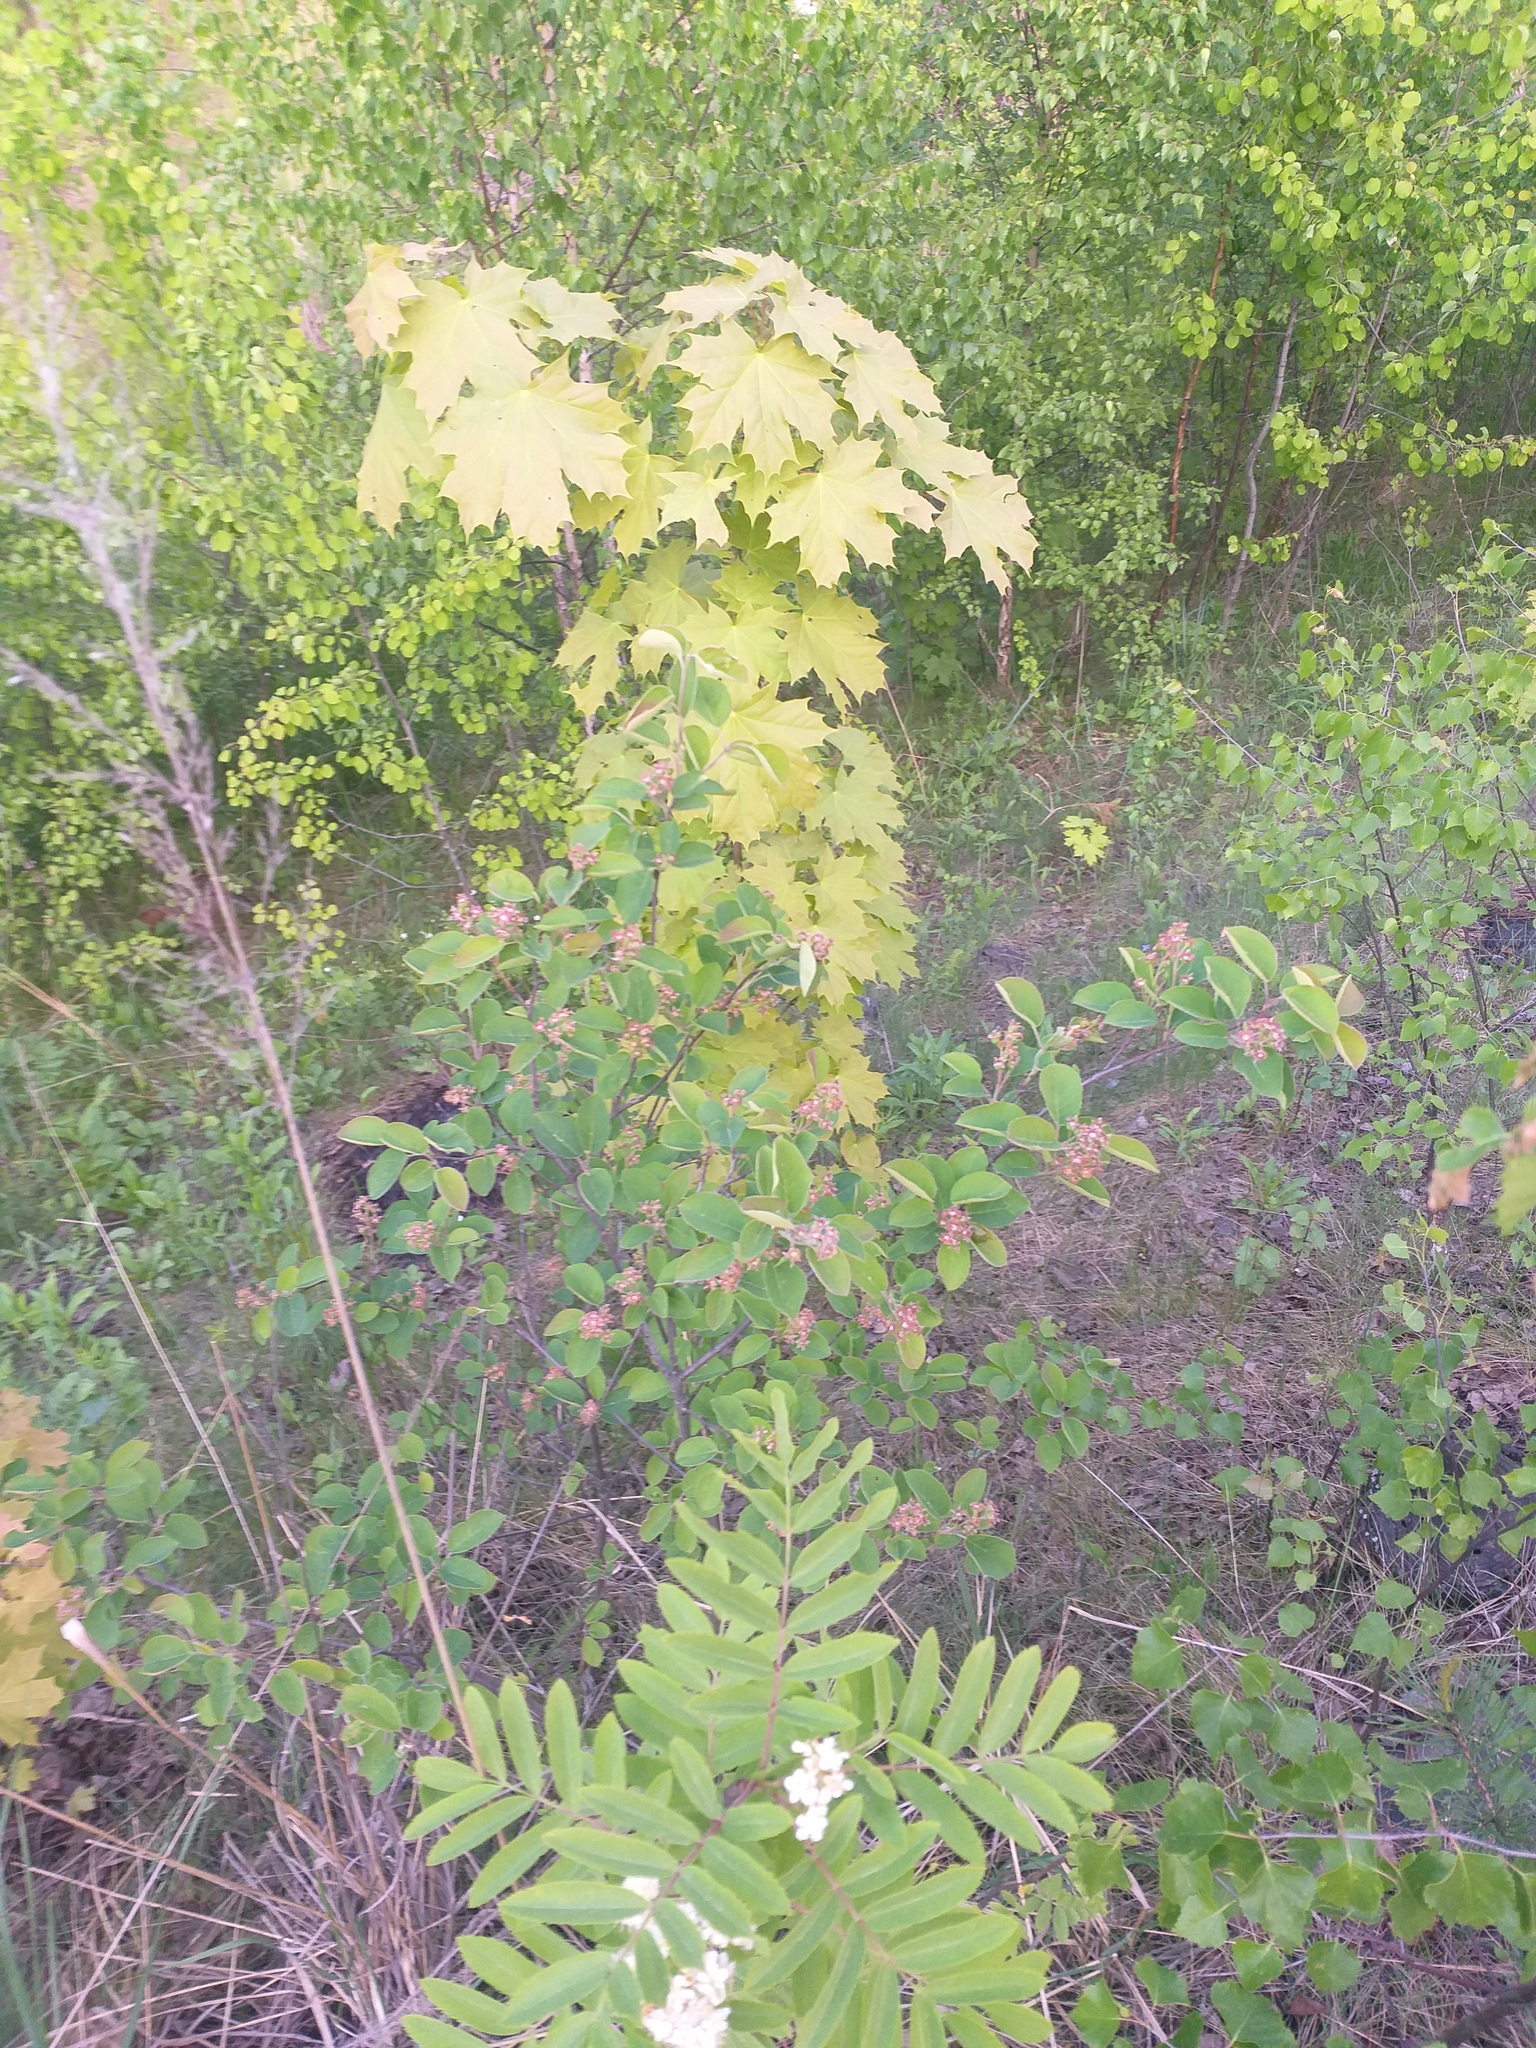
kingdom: Plantae
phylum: Tracheophyta
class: Magnoliopsida
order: Rosales
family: Rosaceae
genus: Amelanchier
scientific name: Amelanchier
